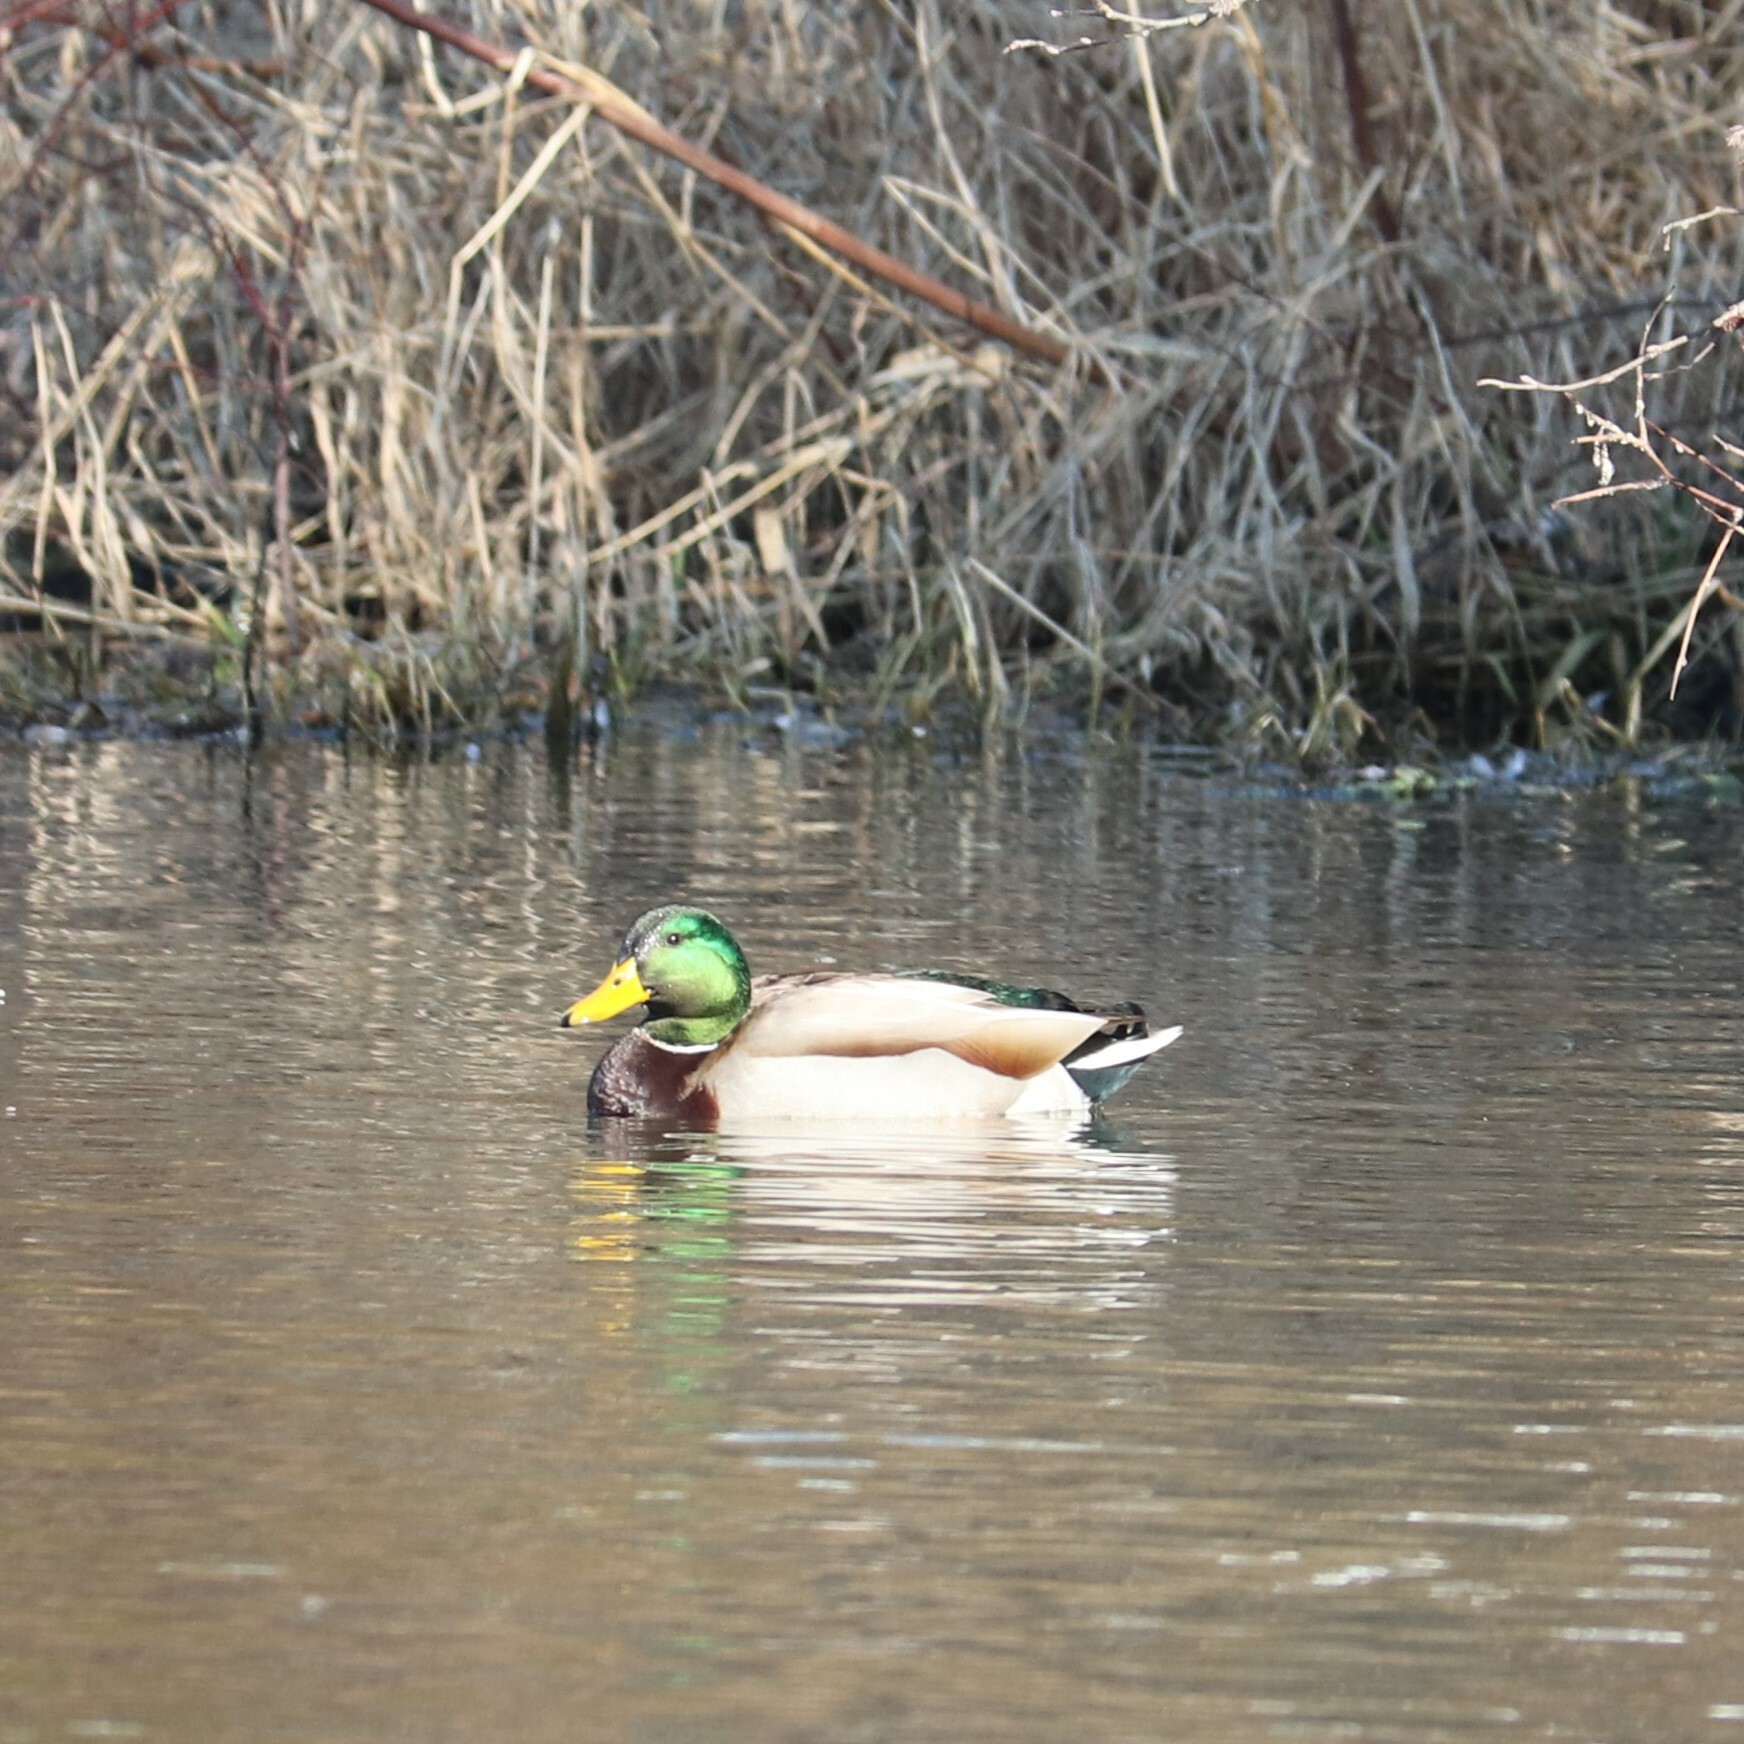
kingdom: Animalia
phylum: Chordata
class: Aves
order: Anseriformes
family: Anatidae
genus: Anas
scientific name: Anas platyrhynchos
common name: Mallard
